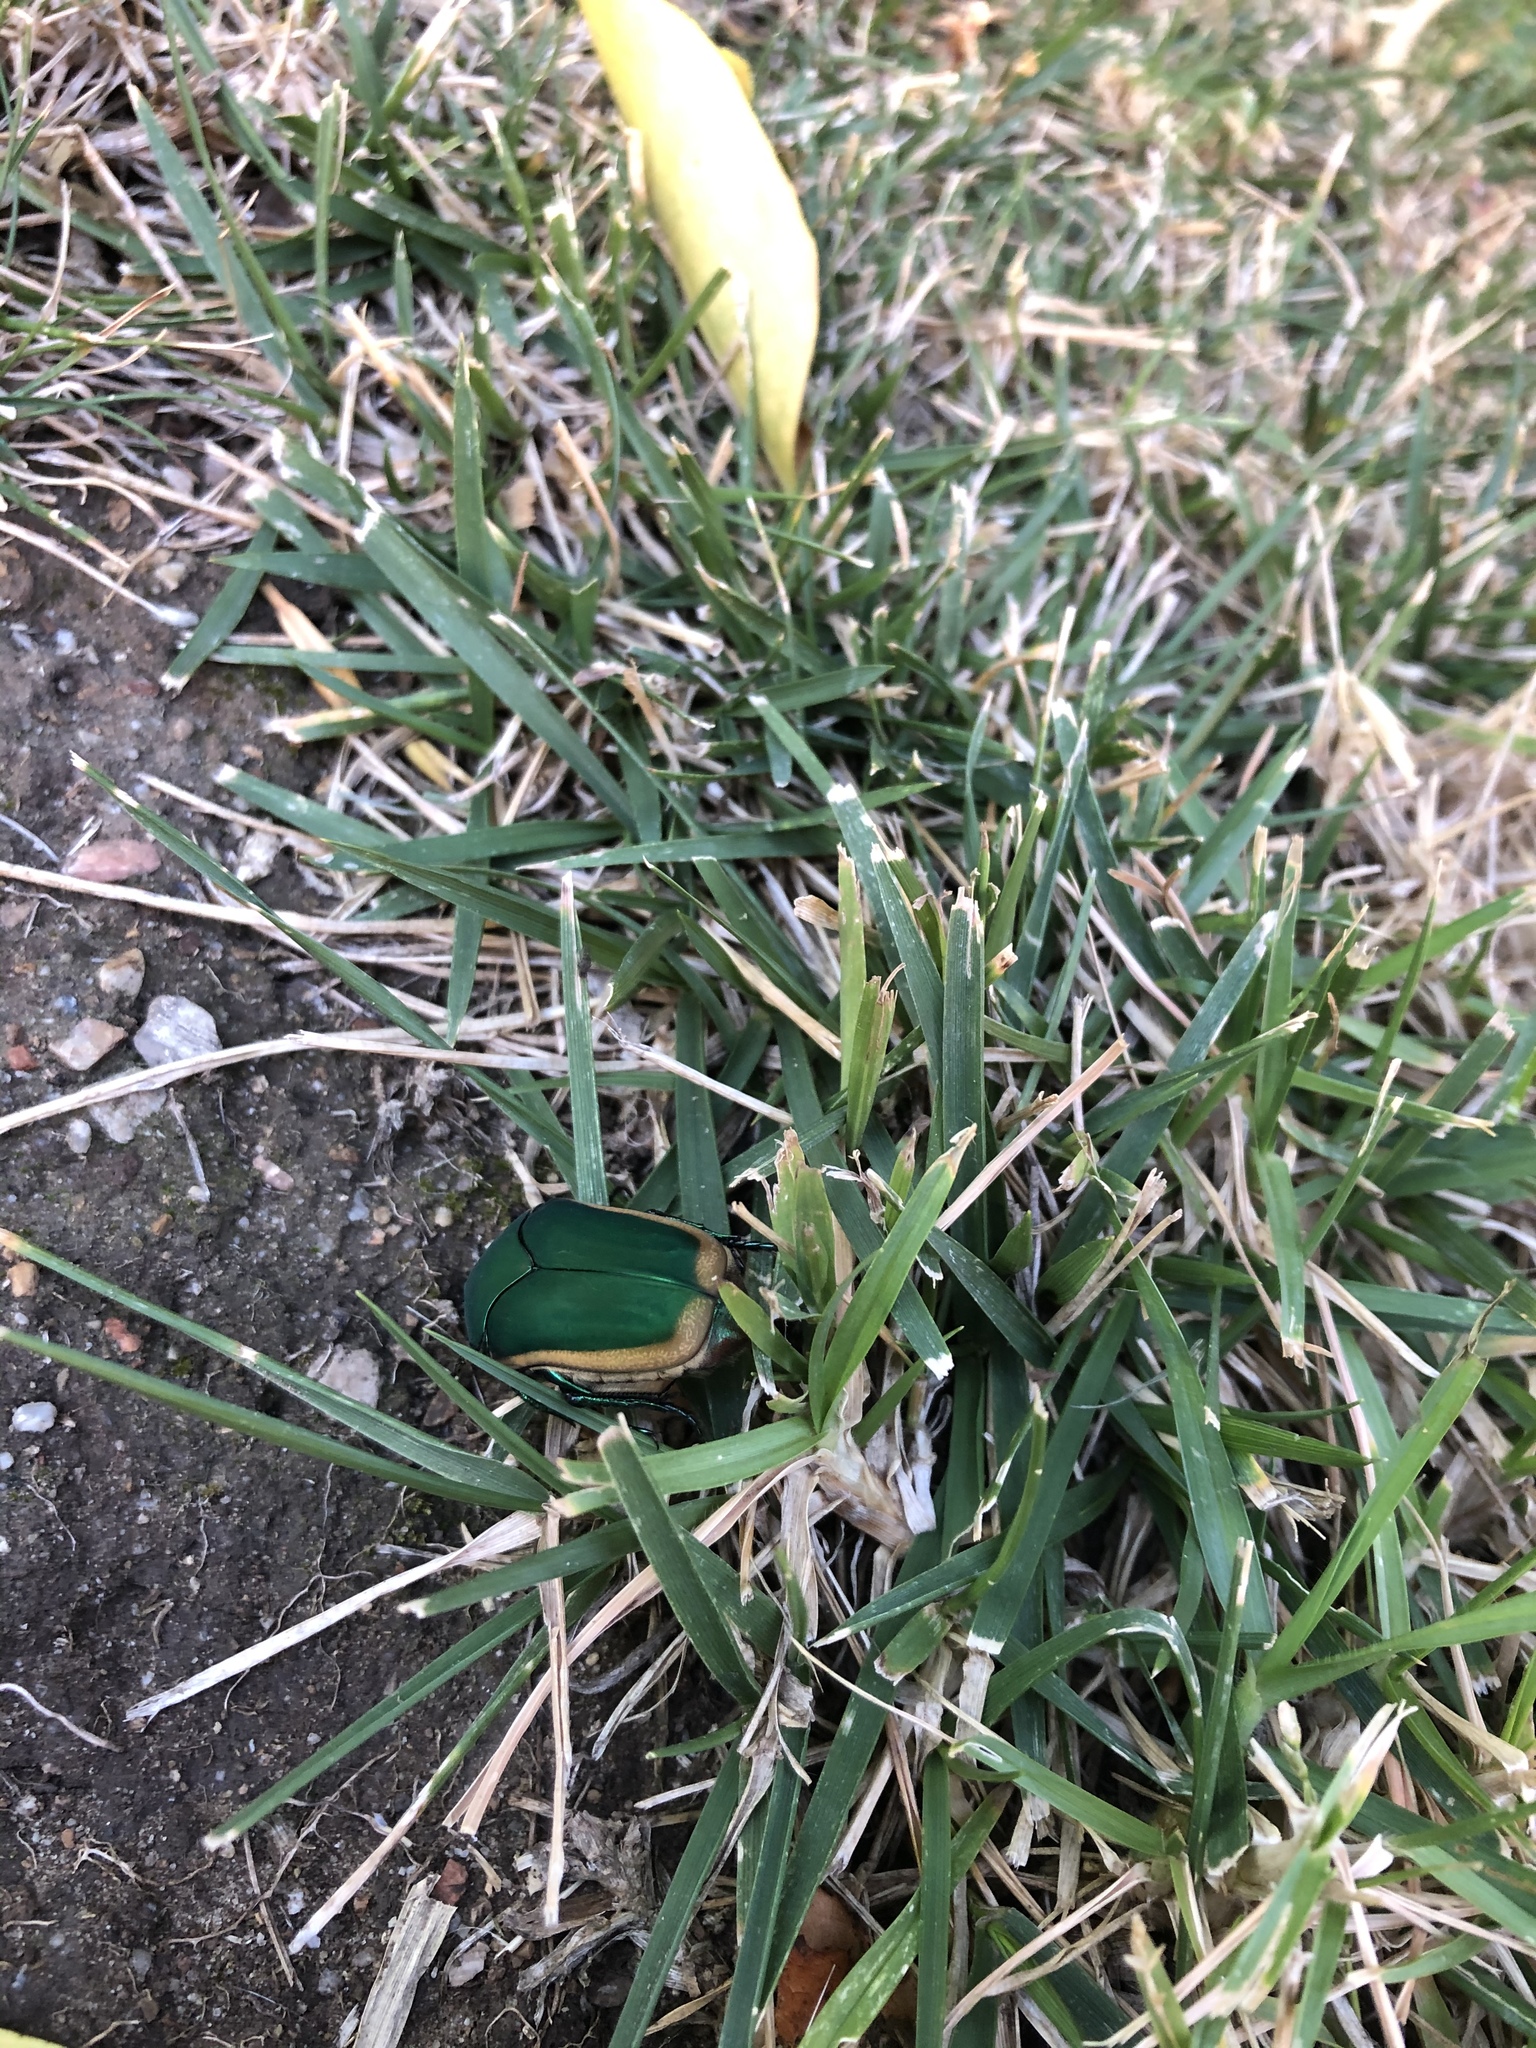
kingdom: Animalia
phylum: Arthropoda
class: Insecta
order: Coleoptera
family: Scarabaeidae
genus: Cotinis
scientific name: Cotinis mutabilis
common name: Figeater beetle
